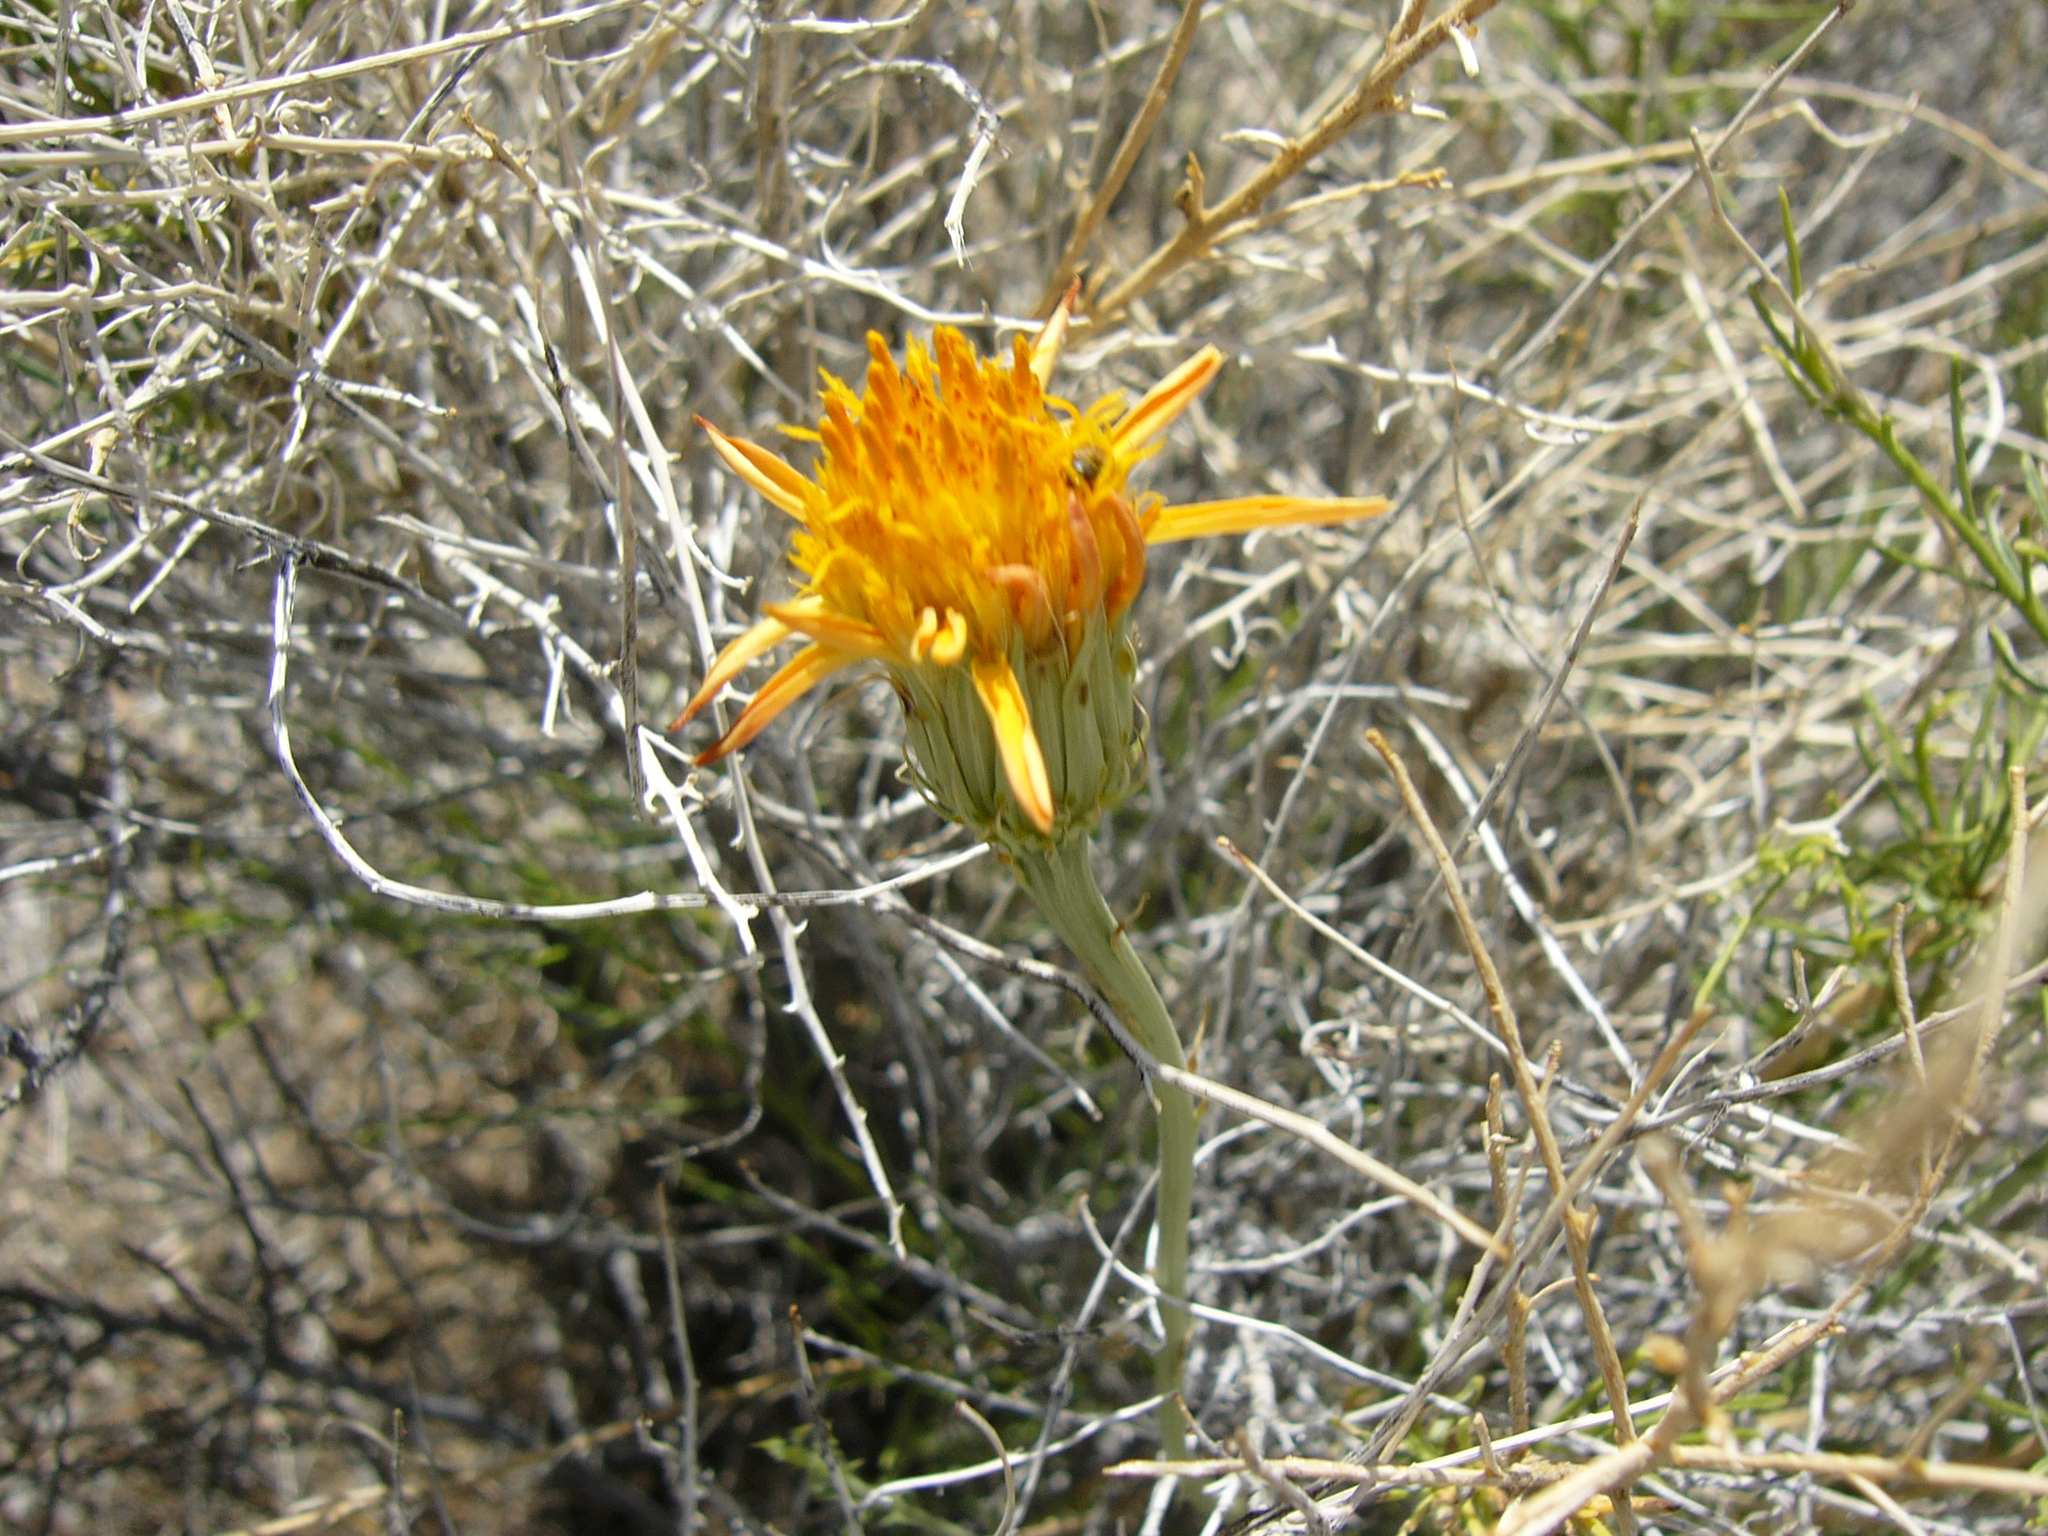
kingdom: Plantae
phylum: Tracheophyta
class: Magnoliopsida
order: Asterales
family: Asteraceae
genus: Adenophyllum
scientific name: Adenophyllum cooperi
